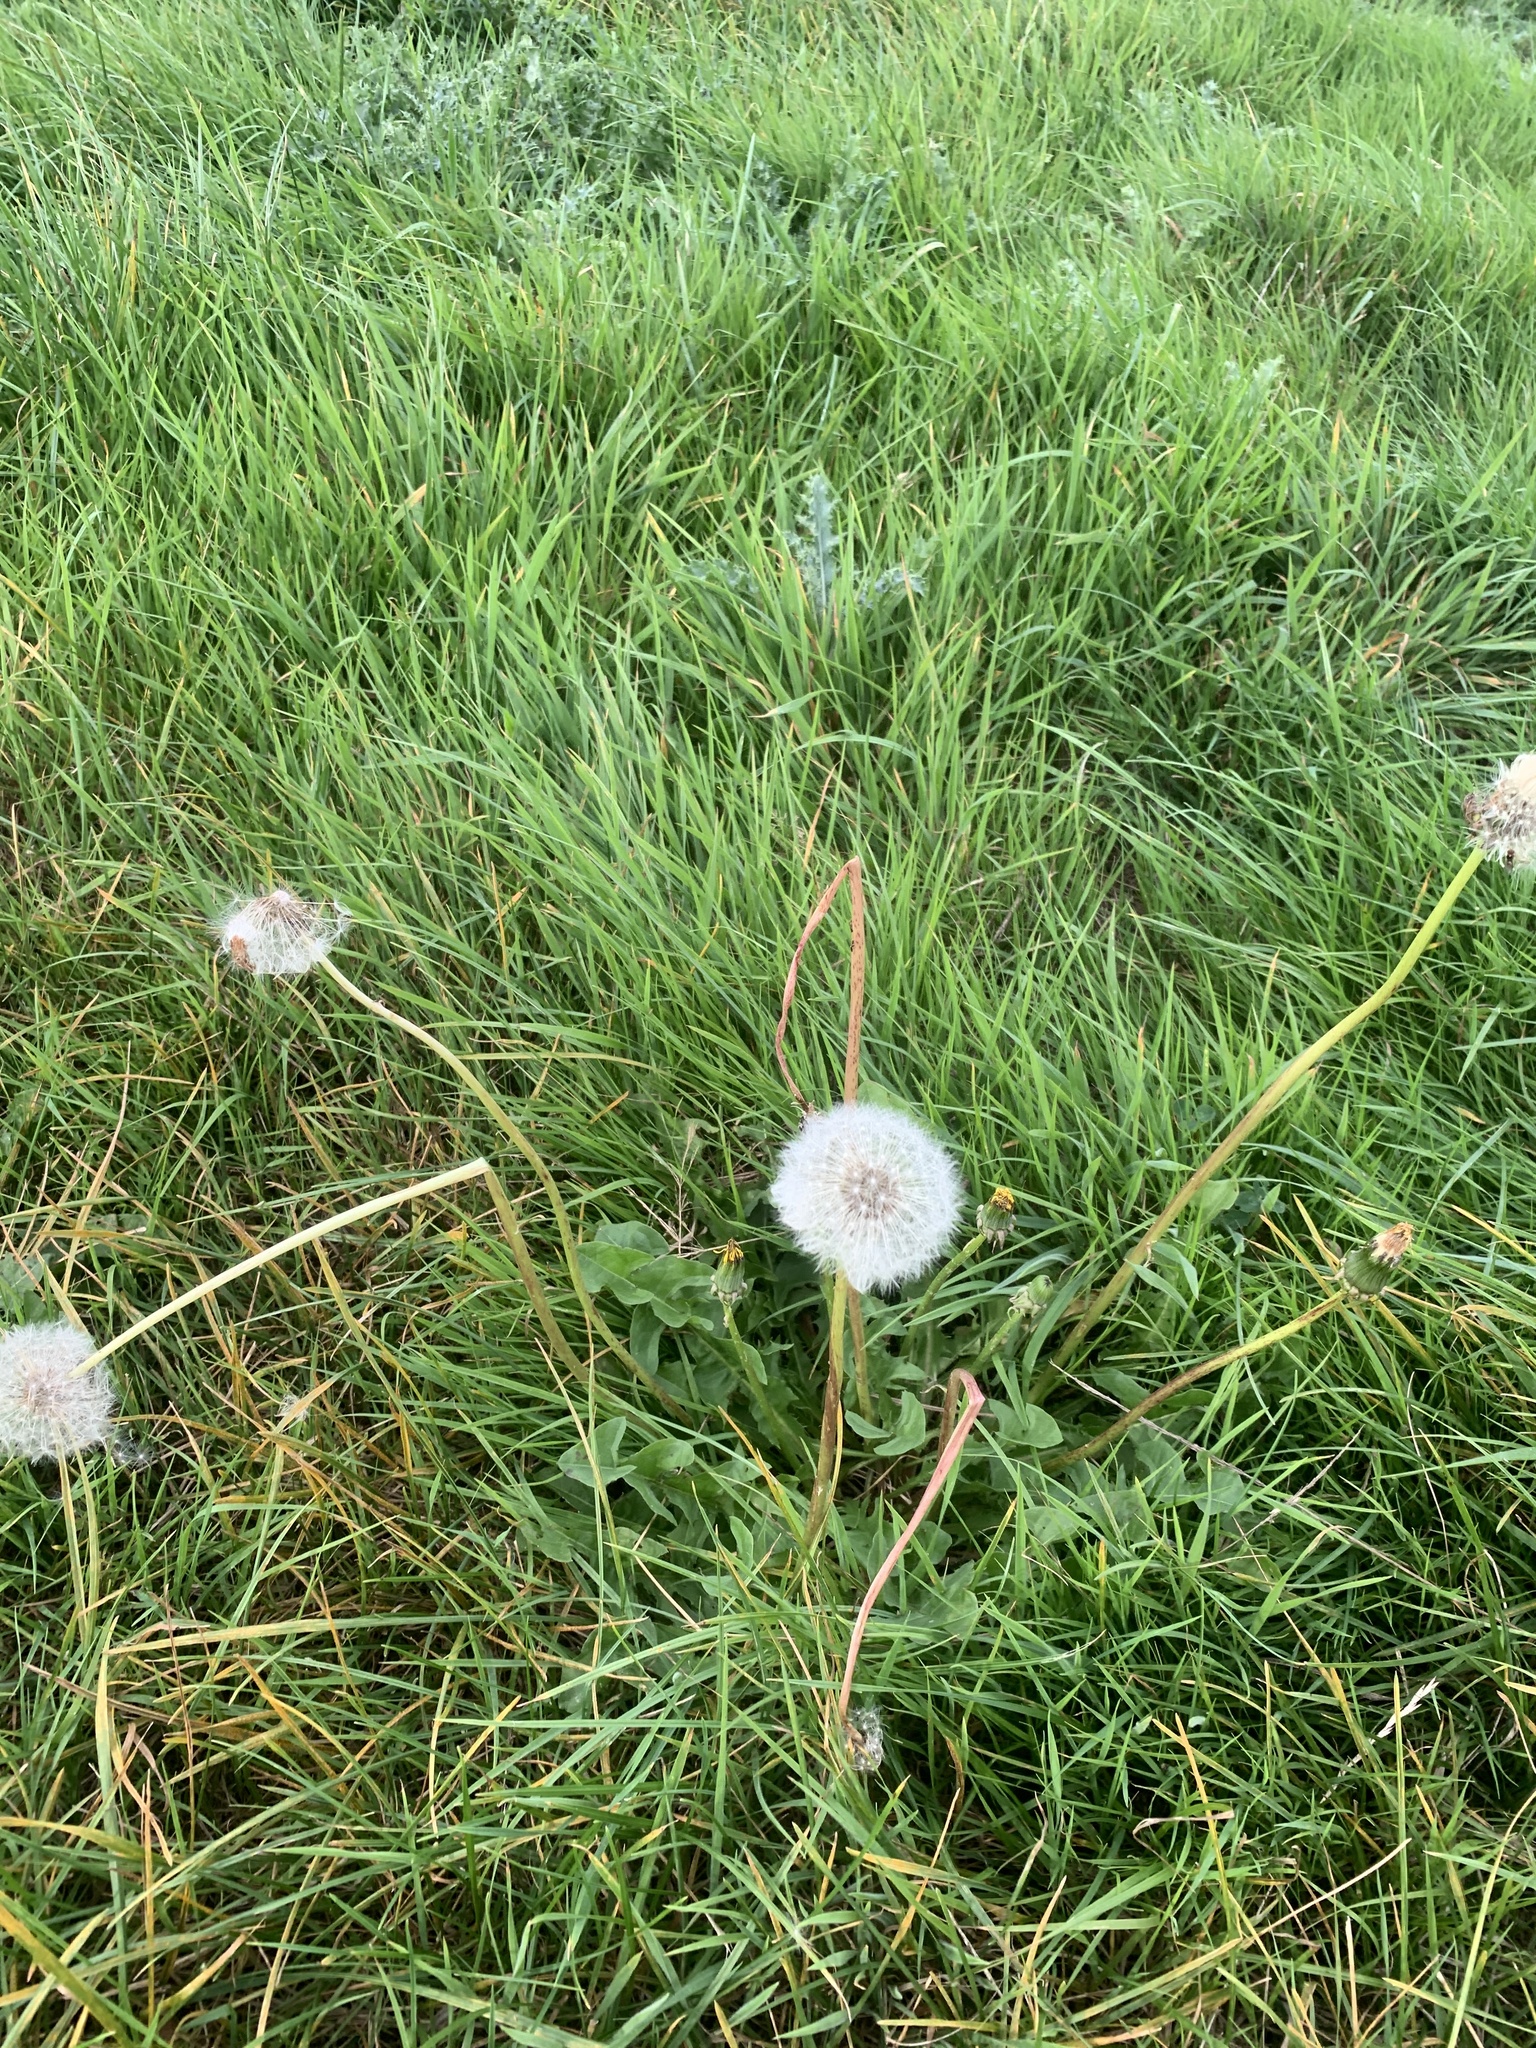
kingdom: Plantae
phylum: Tracheophyta
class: Magnoliopsida
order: Asterales
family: Asteraceae
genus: Taraxacum
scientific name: Taraxacum officinale
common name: Common dandelion
